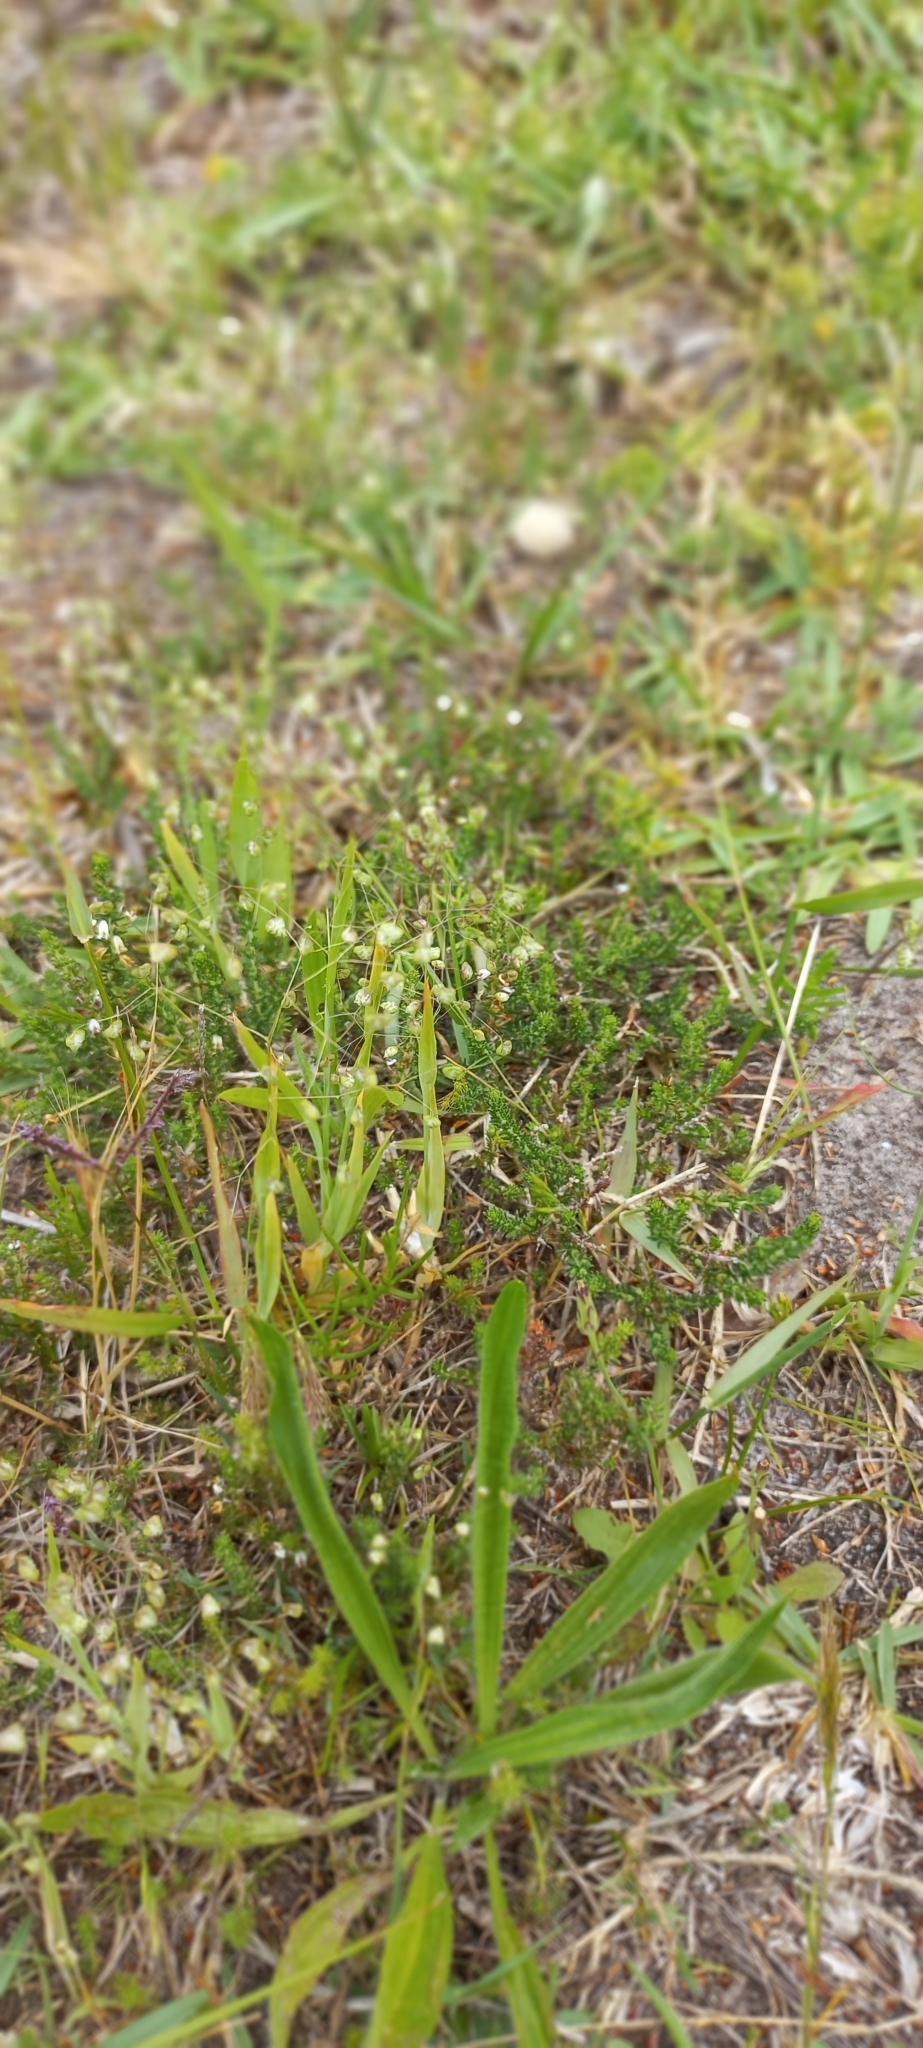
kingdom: Plantae
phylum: Tracheophyta
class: Liliopsida
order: Poales
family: Poaceae
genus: Briza
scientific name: Briza minor
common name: Lesser quaking-grass
